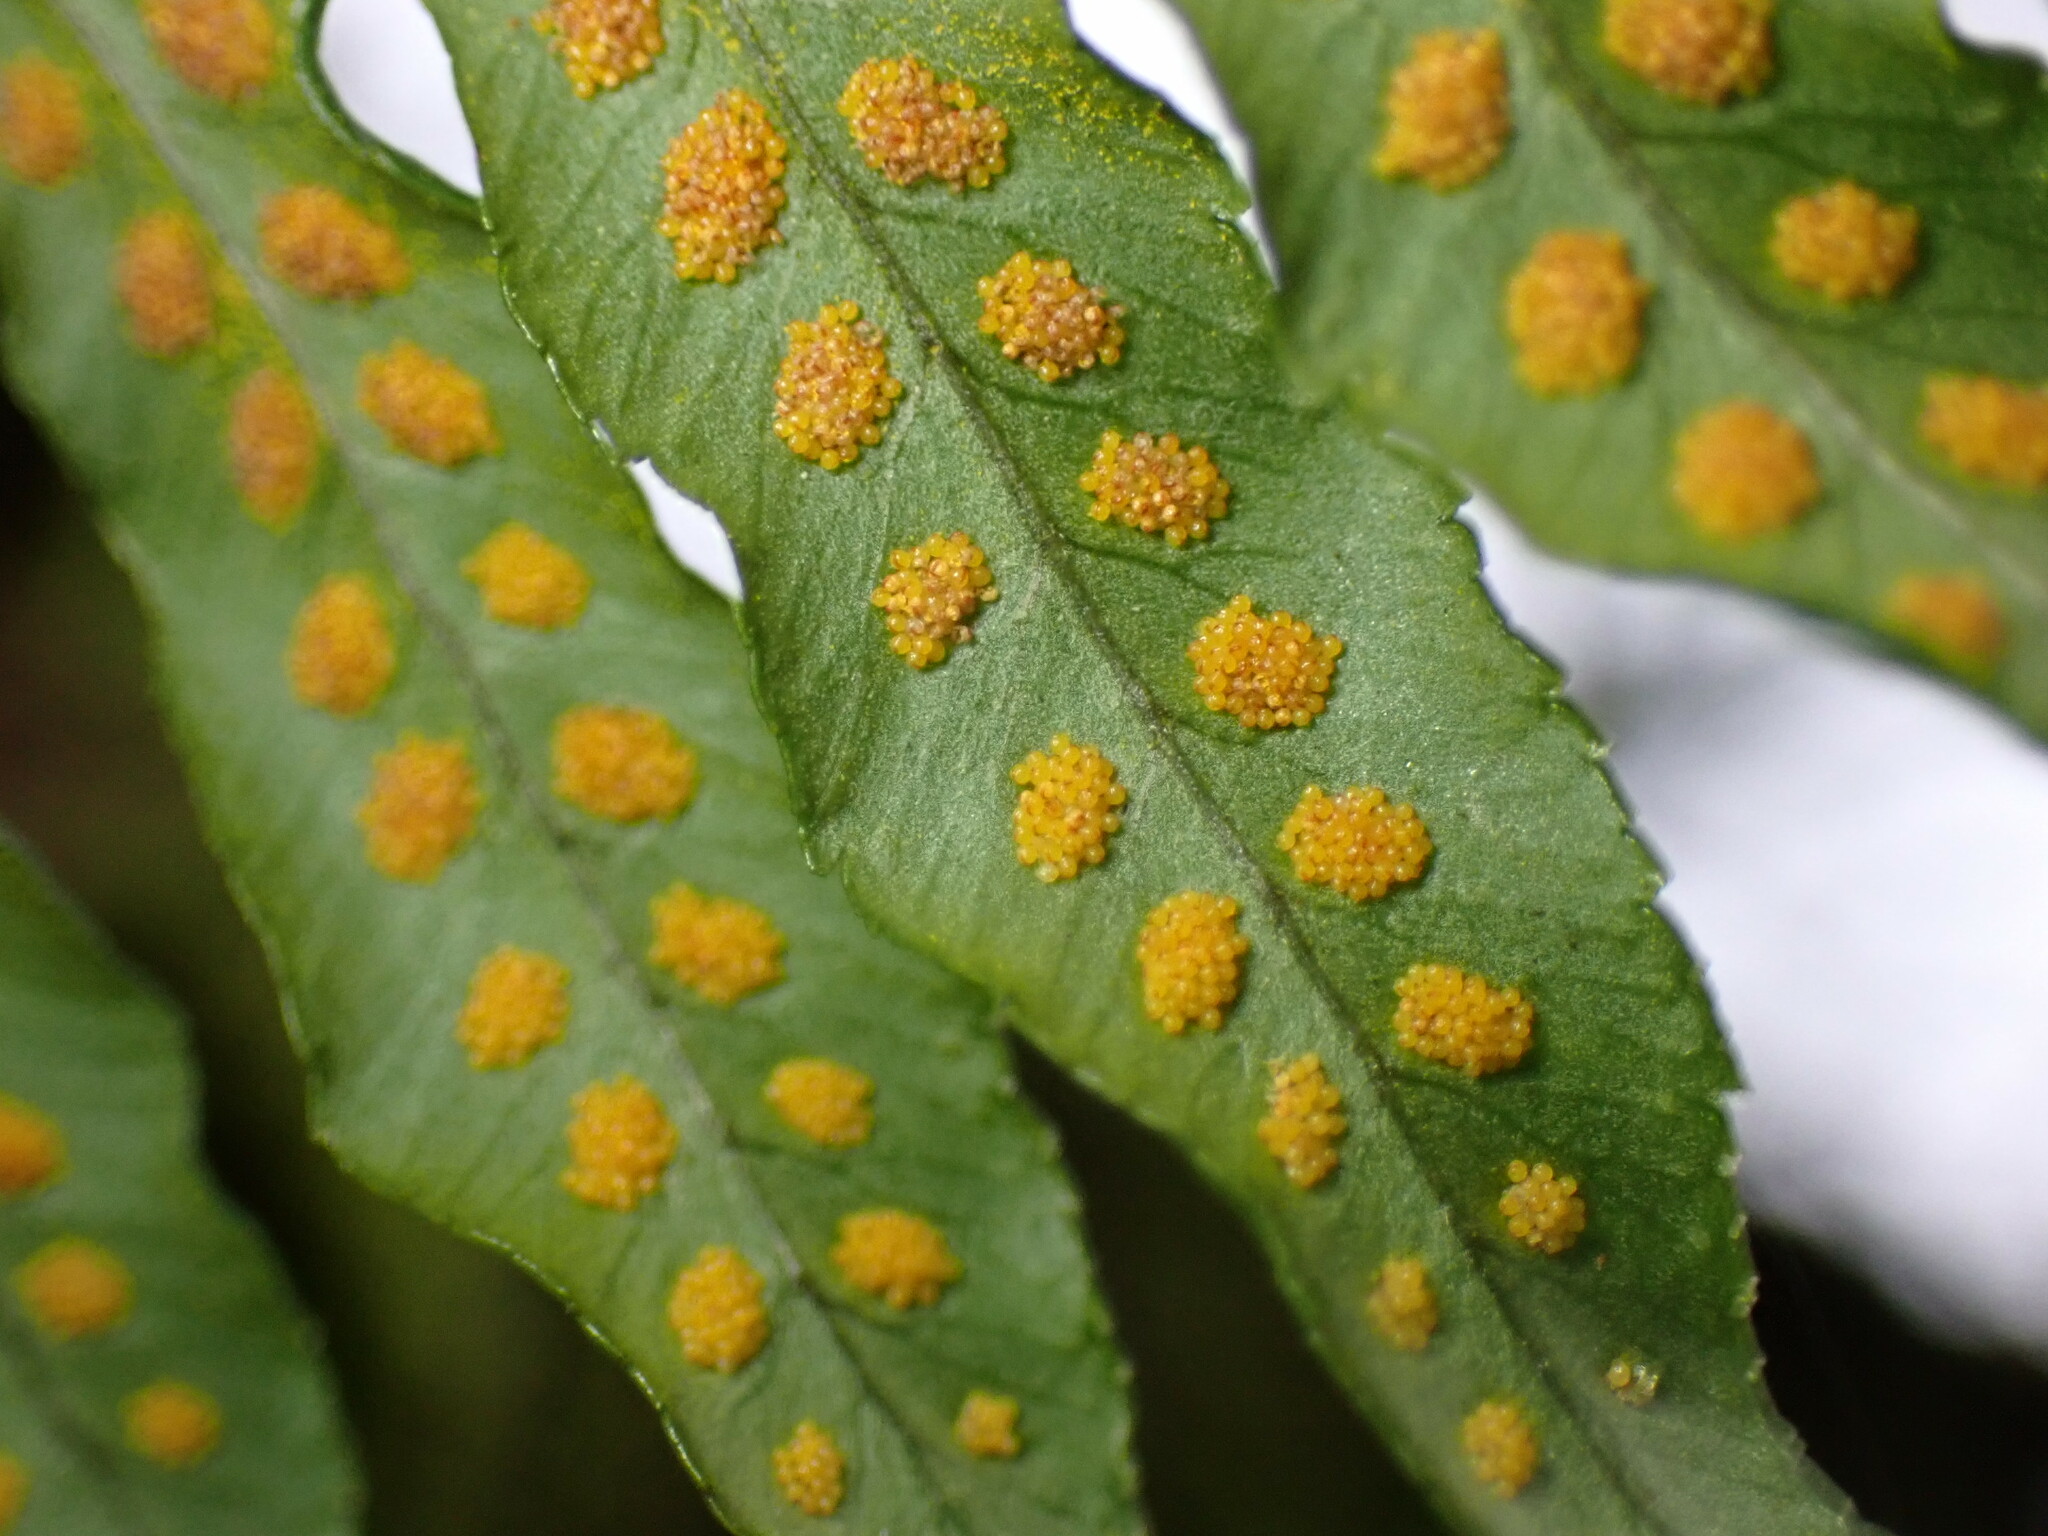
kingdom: Plantae
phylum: Tracheophyta
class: Polypodiopsida
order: Polypodiales
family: Polypodiaceae
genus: Polypodium
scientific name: Polypodium glycyrrhiza
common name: Licorice fern
